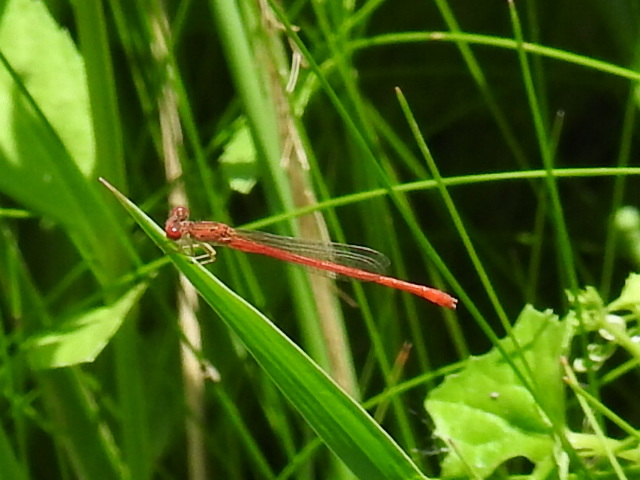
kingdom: Animalia
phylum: Arthropoda
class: Insecta
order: Odonata
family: Coenagrionidae
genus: Telebasis
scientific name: Telebasis salva
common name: Desert firetail
